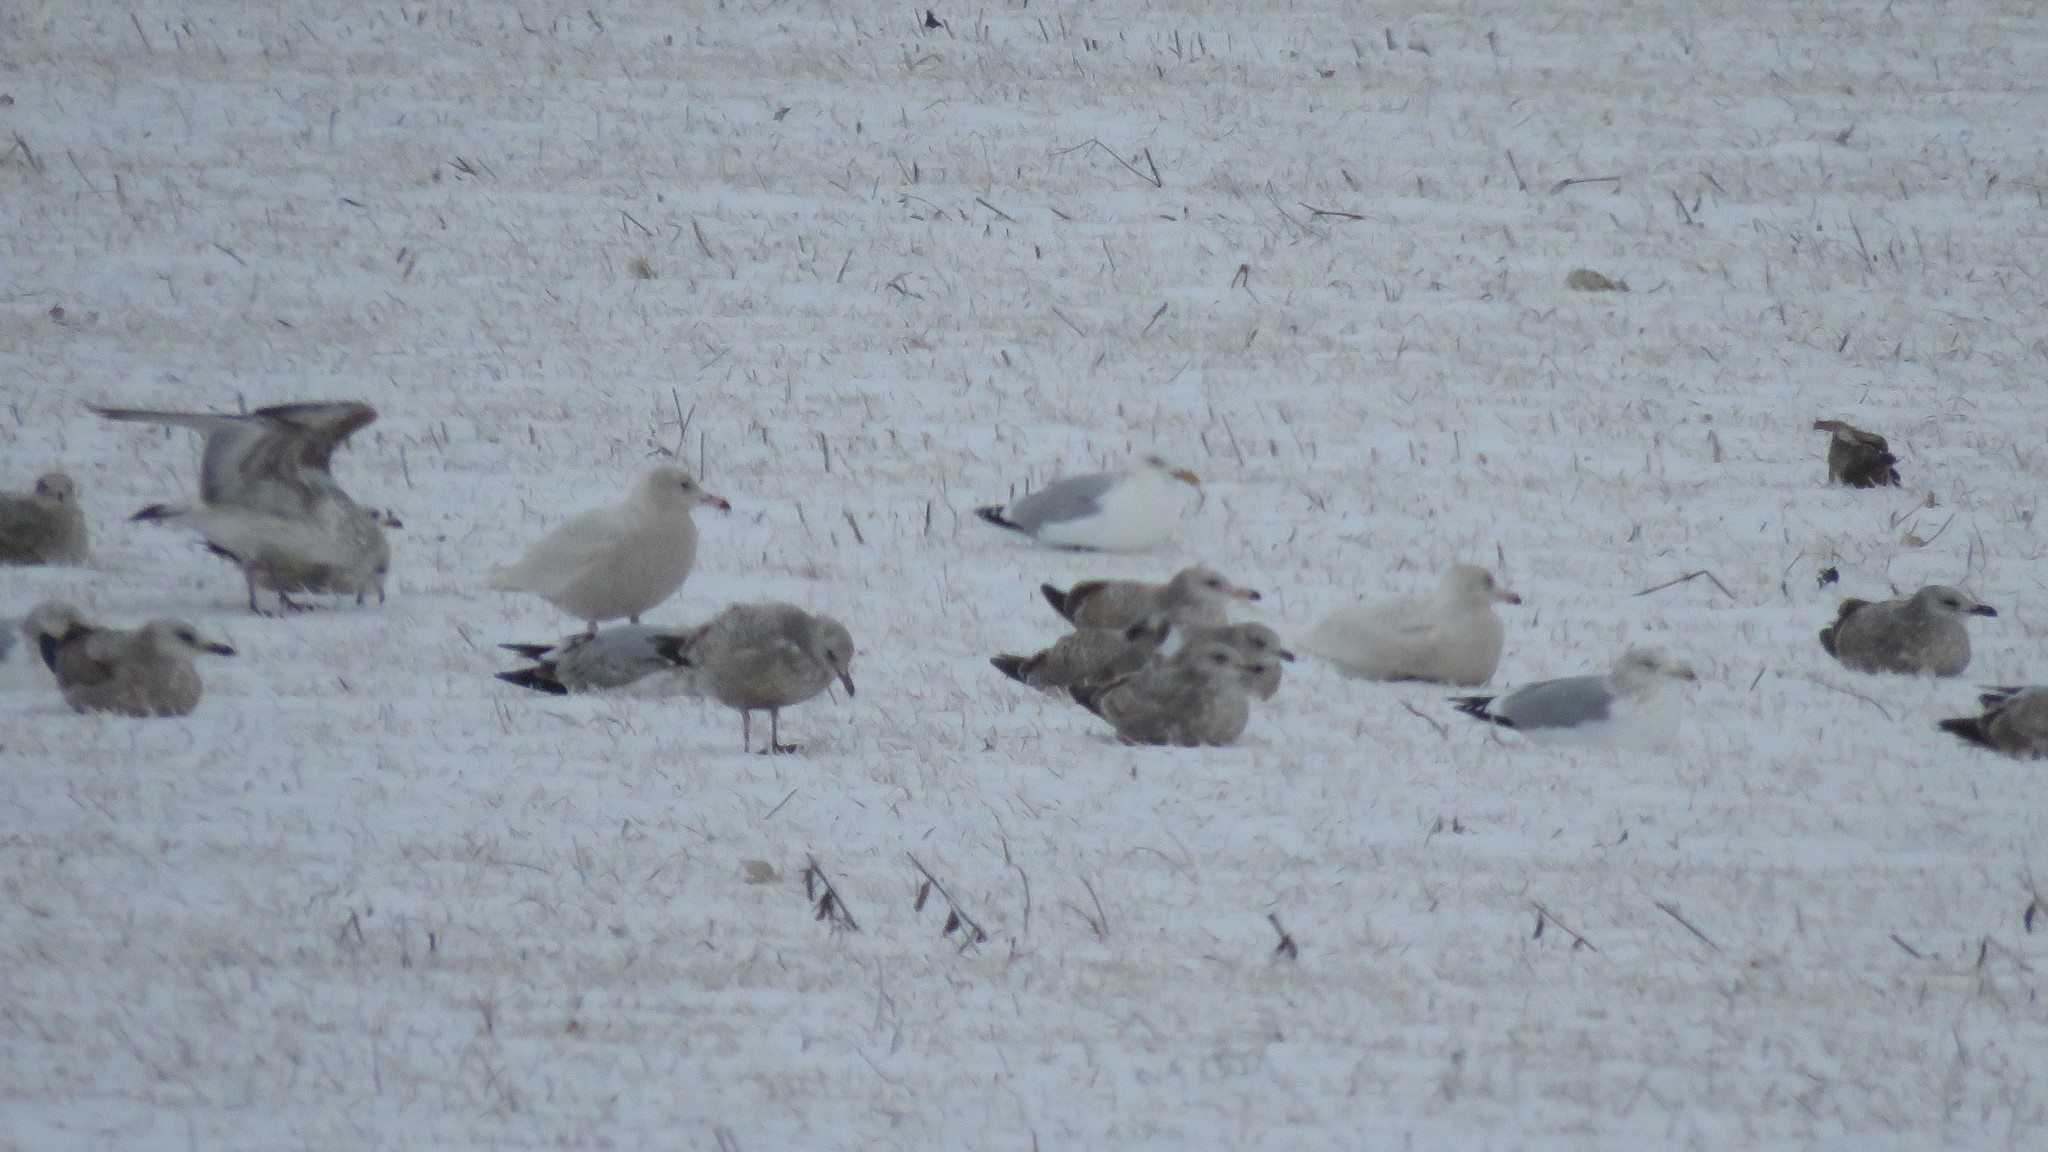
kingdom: Animalia
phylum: Chordata
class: Aves
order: Charadriiformes
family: Laridae
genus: Larus
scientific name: Larus hyperboreus
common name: Glaucous gull
